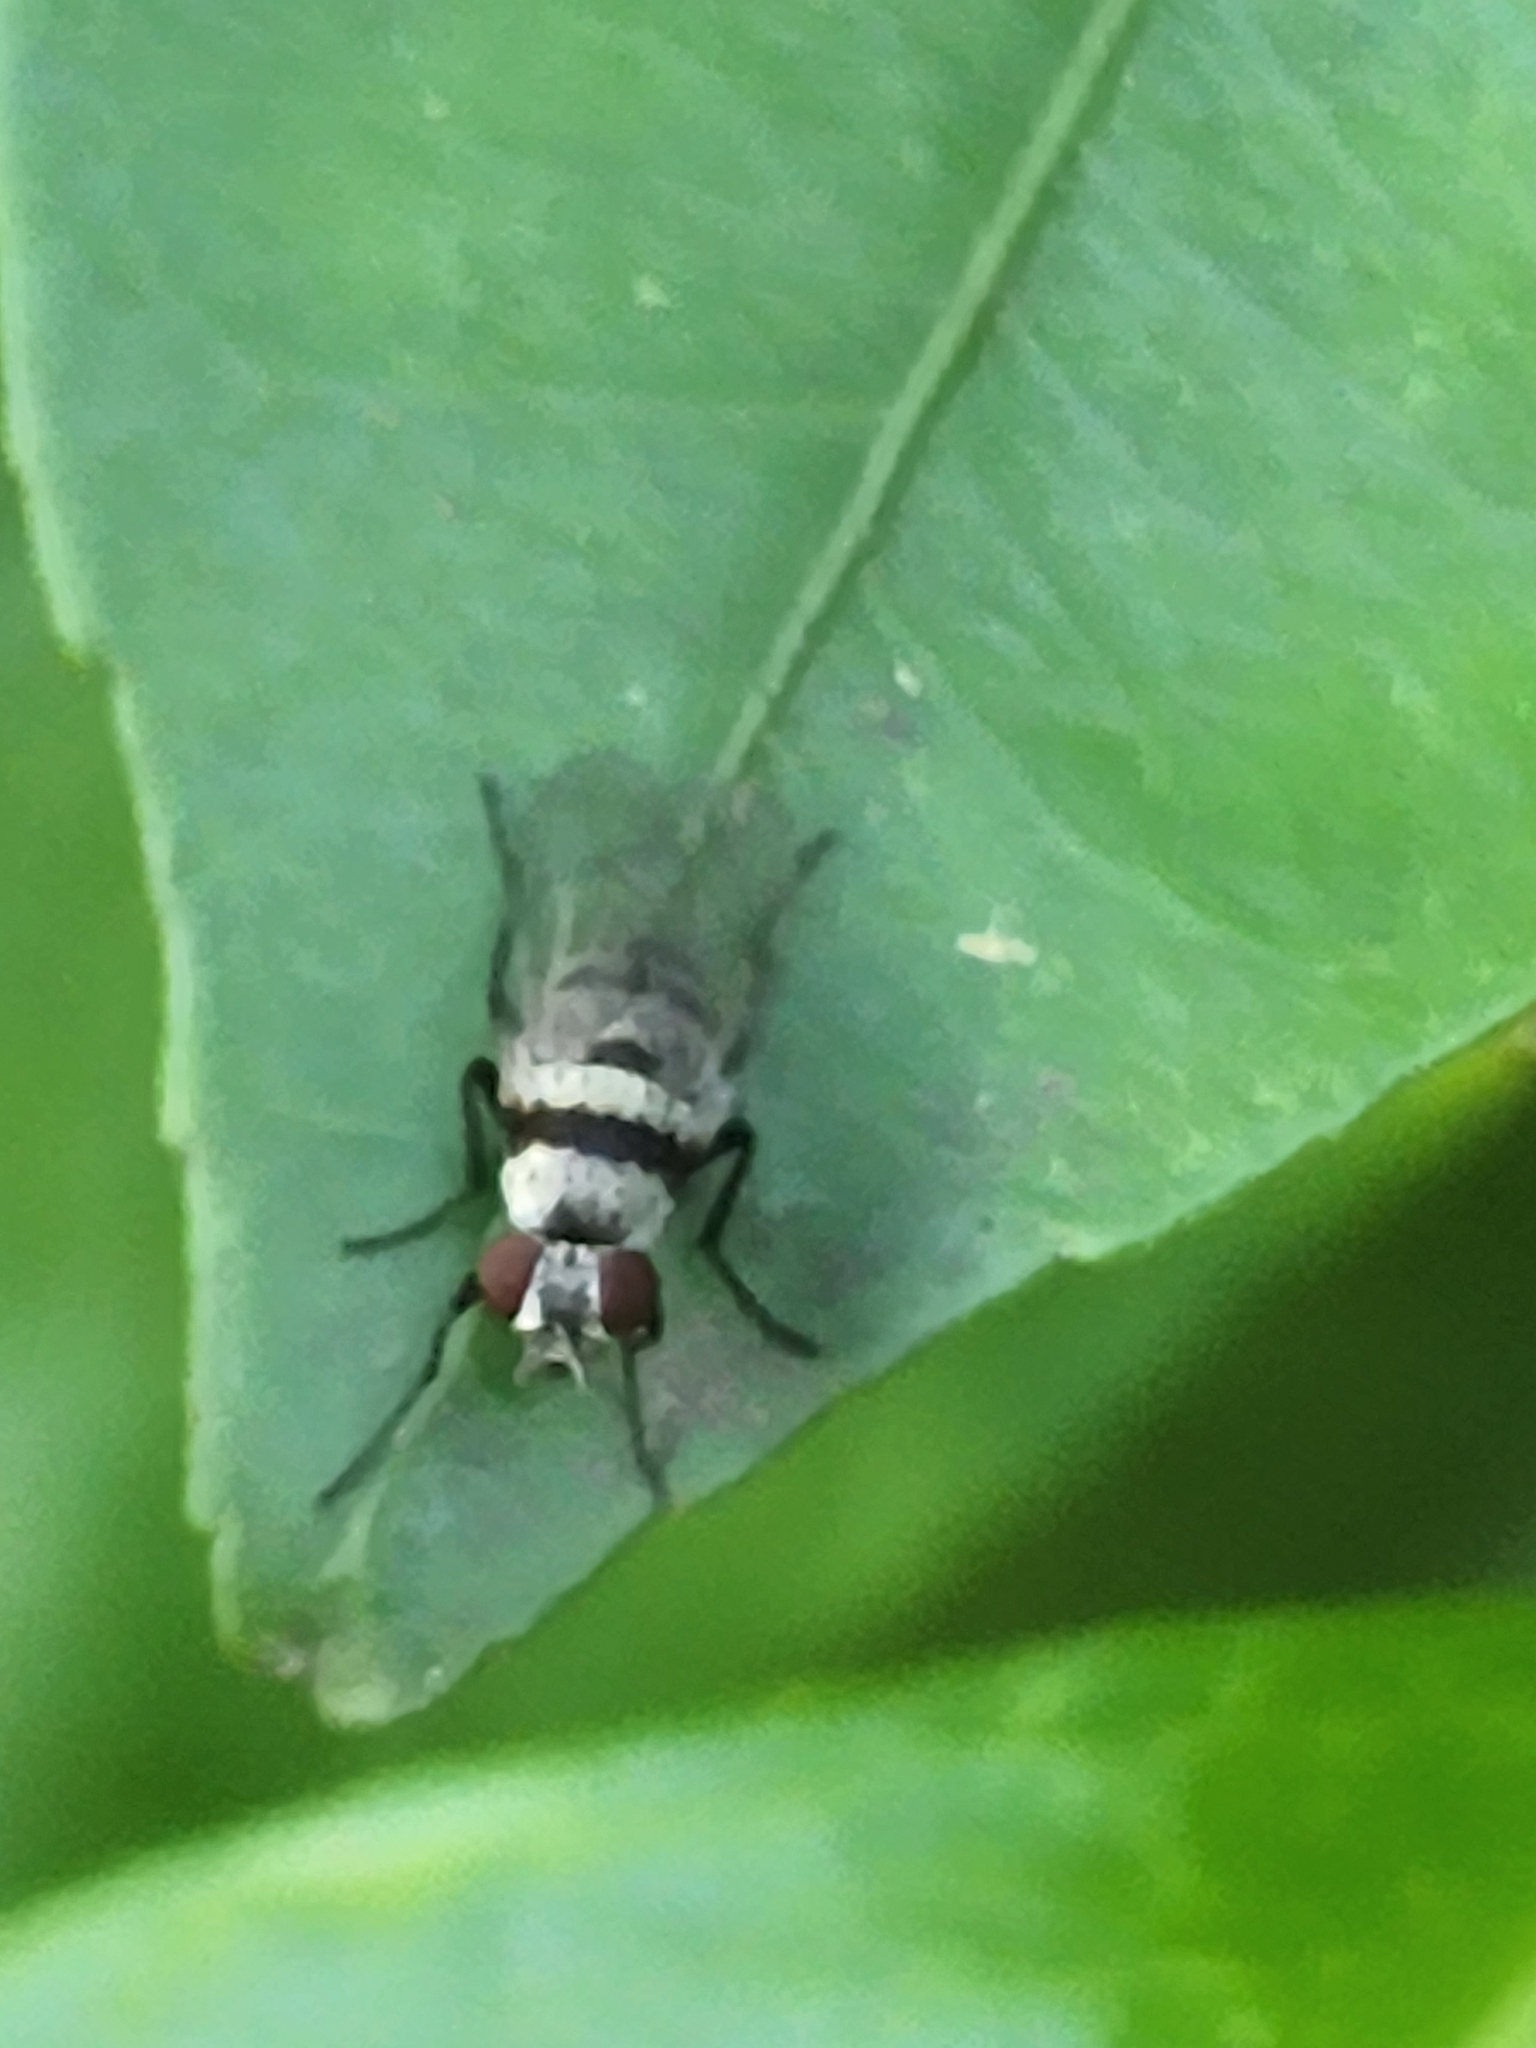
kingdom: Animalia
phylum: Arthropoda
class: Insecta
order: Diptera
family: Anthomyiidae
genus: Anthomyia
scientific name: Anthomyia illocata
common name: Fly
